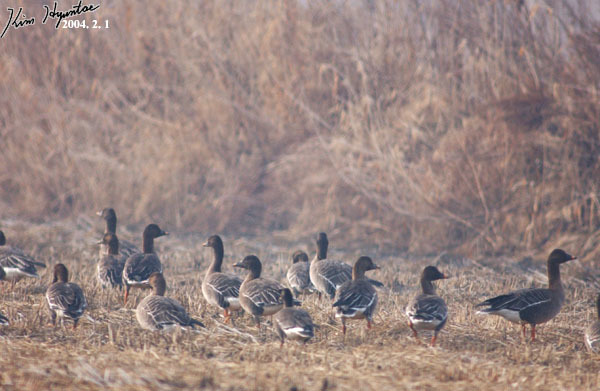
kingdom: Animalia
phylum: Chordata
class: Aves
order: Anseriformes
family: Anatidae
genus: Anser
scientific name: Anser fabalis
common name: Bean goose
